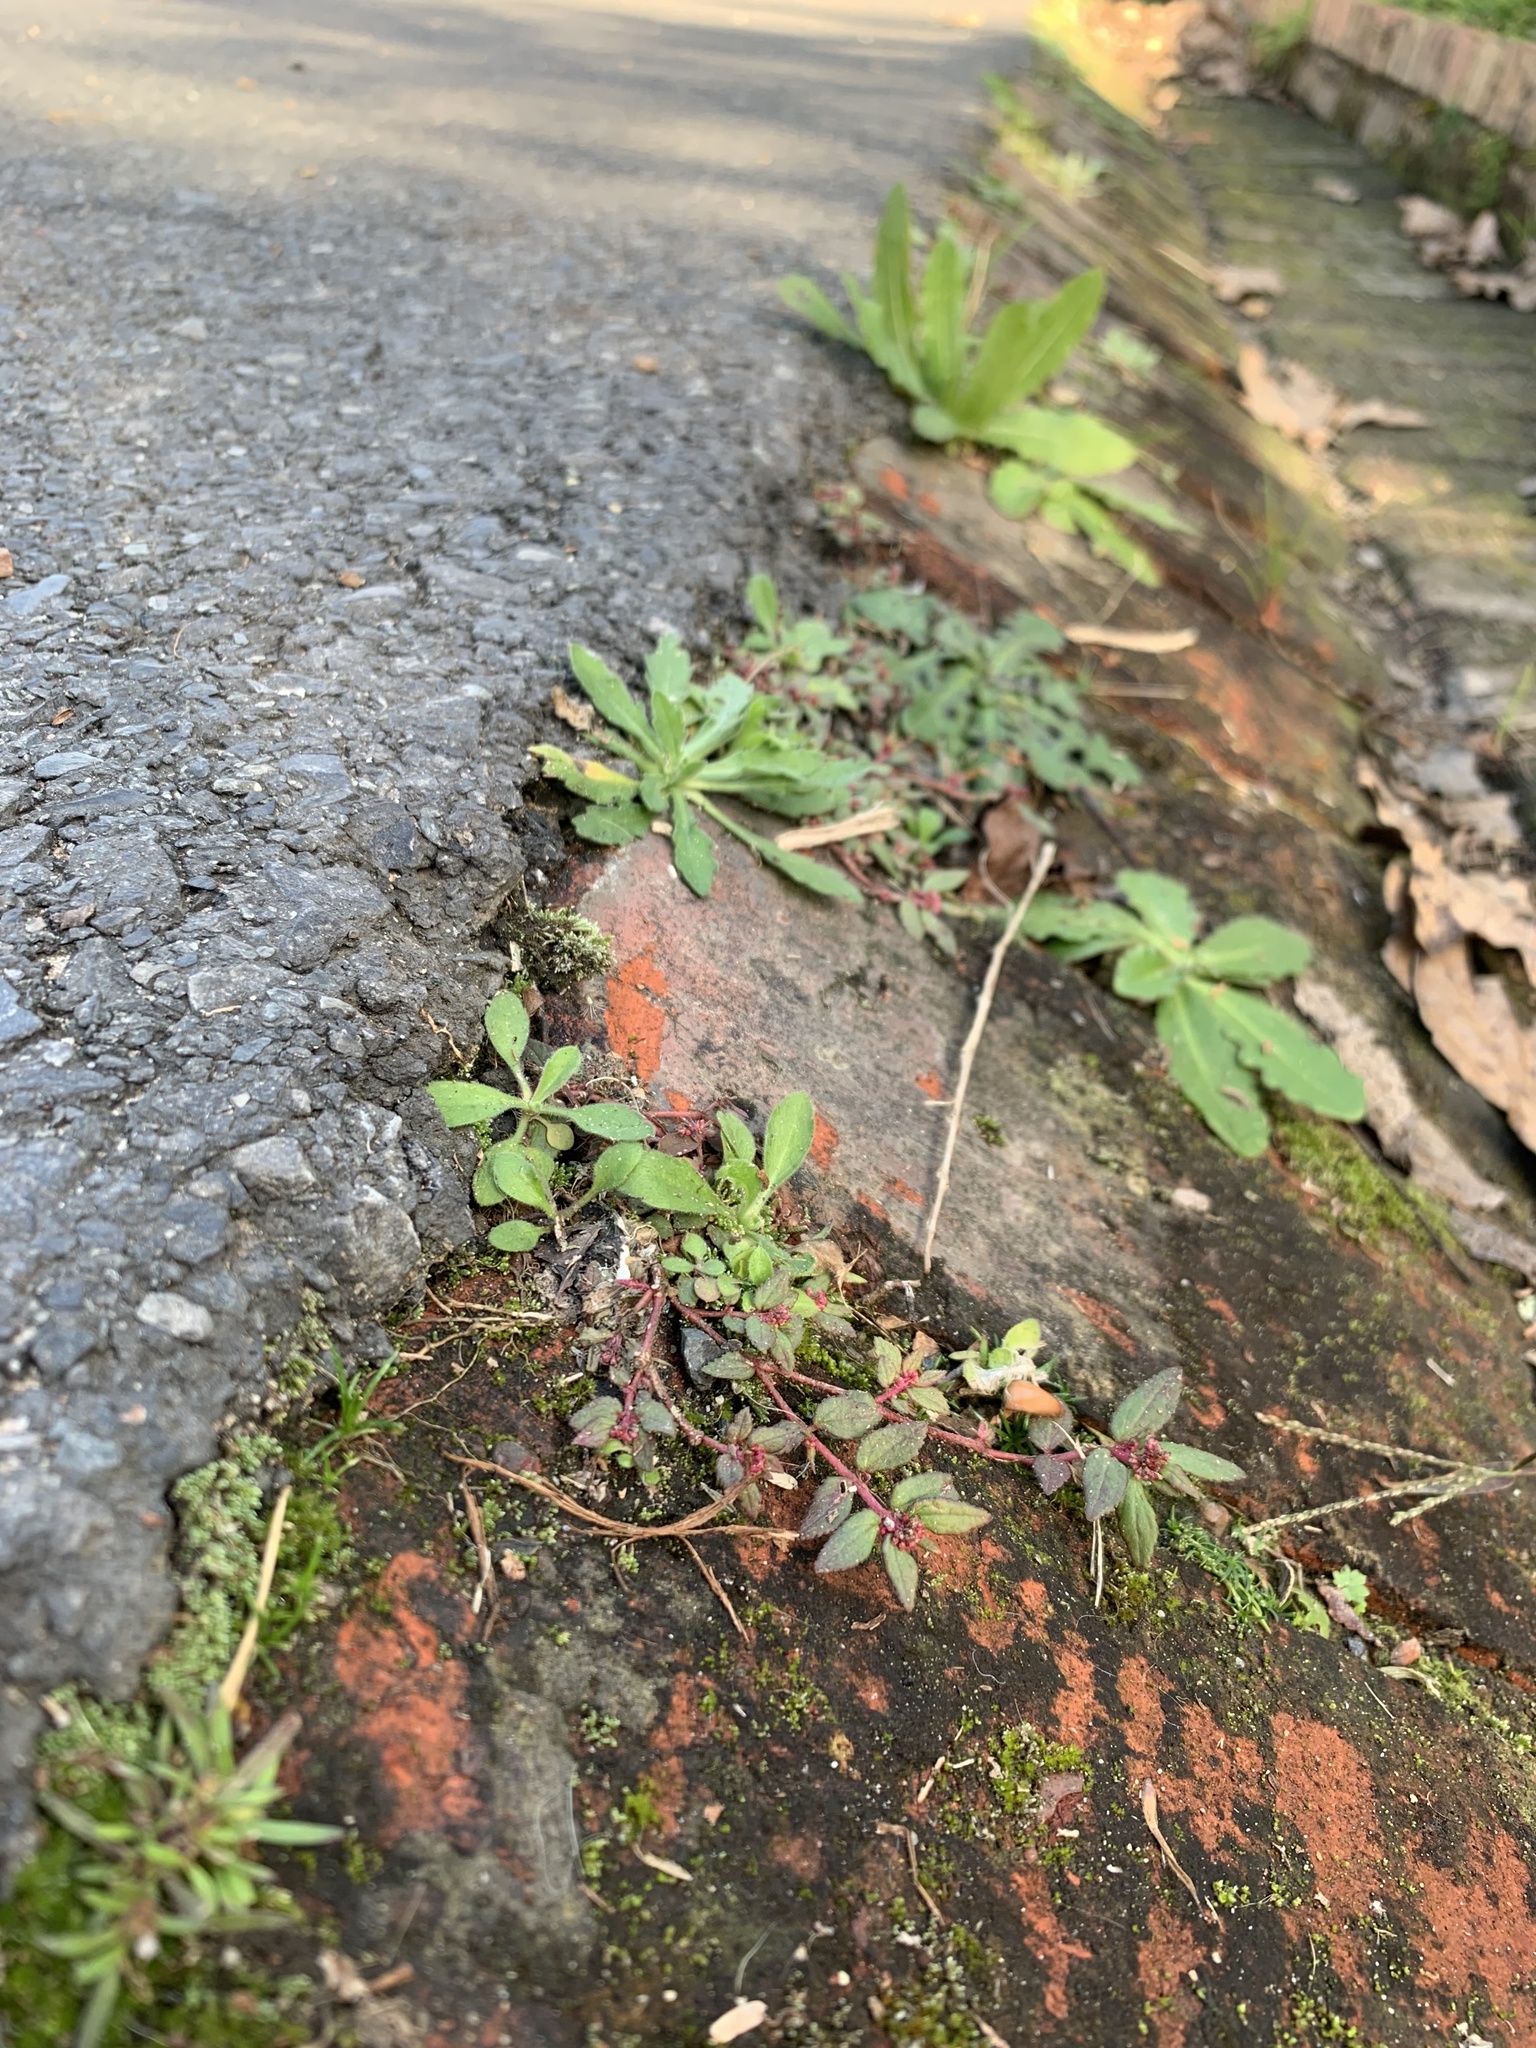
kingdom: Plantae
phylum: Tracheophyta
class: Magnoliopsida
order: Malpighiales
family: Euphorbiaceae
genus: Euphorbia
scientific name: Euphorbia ophthalmica
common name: Florida hammock sandmat
